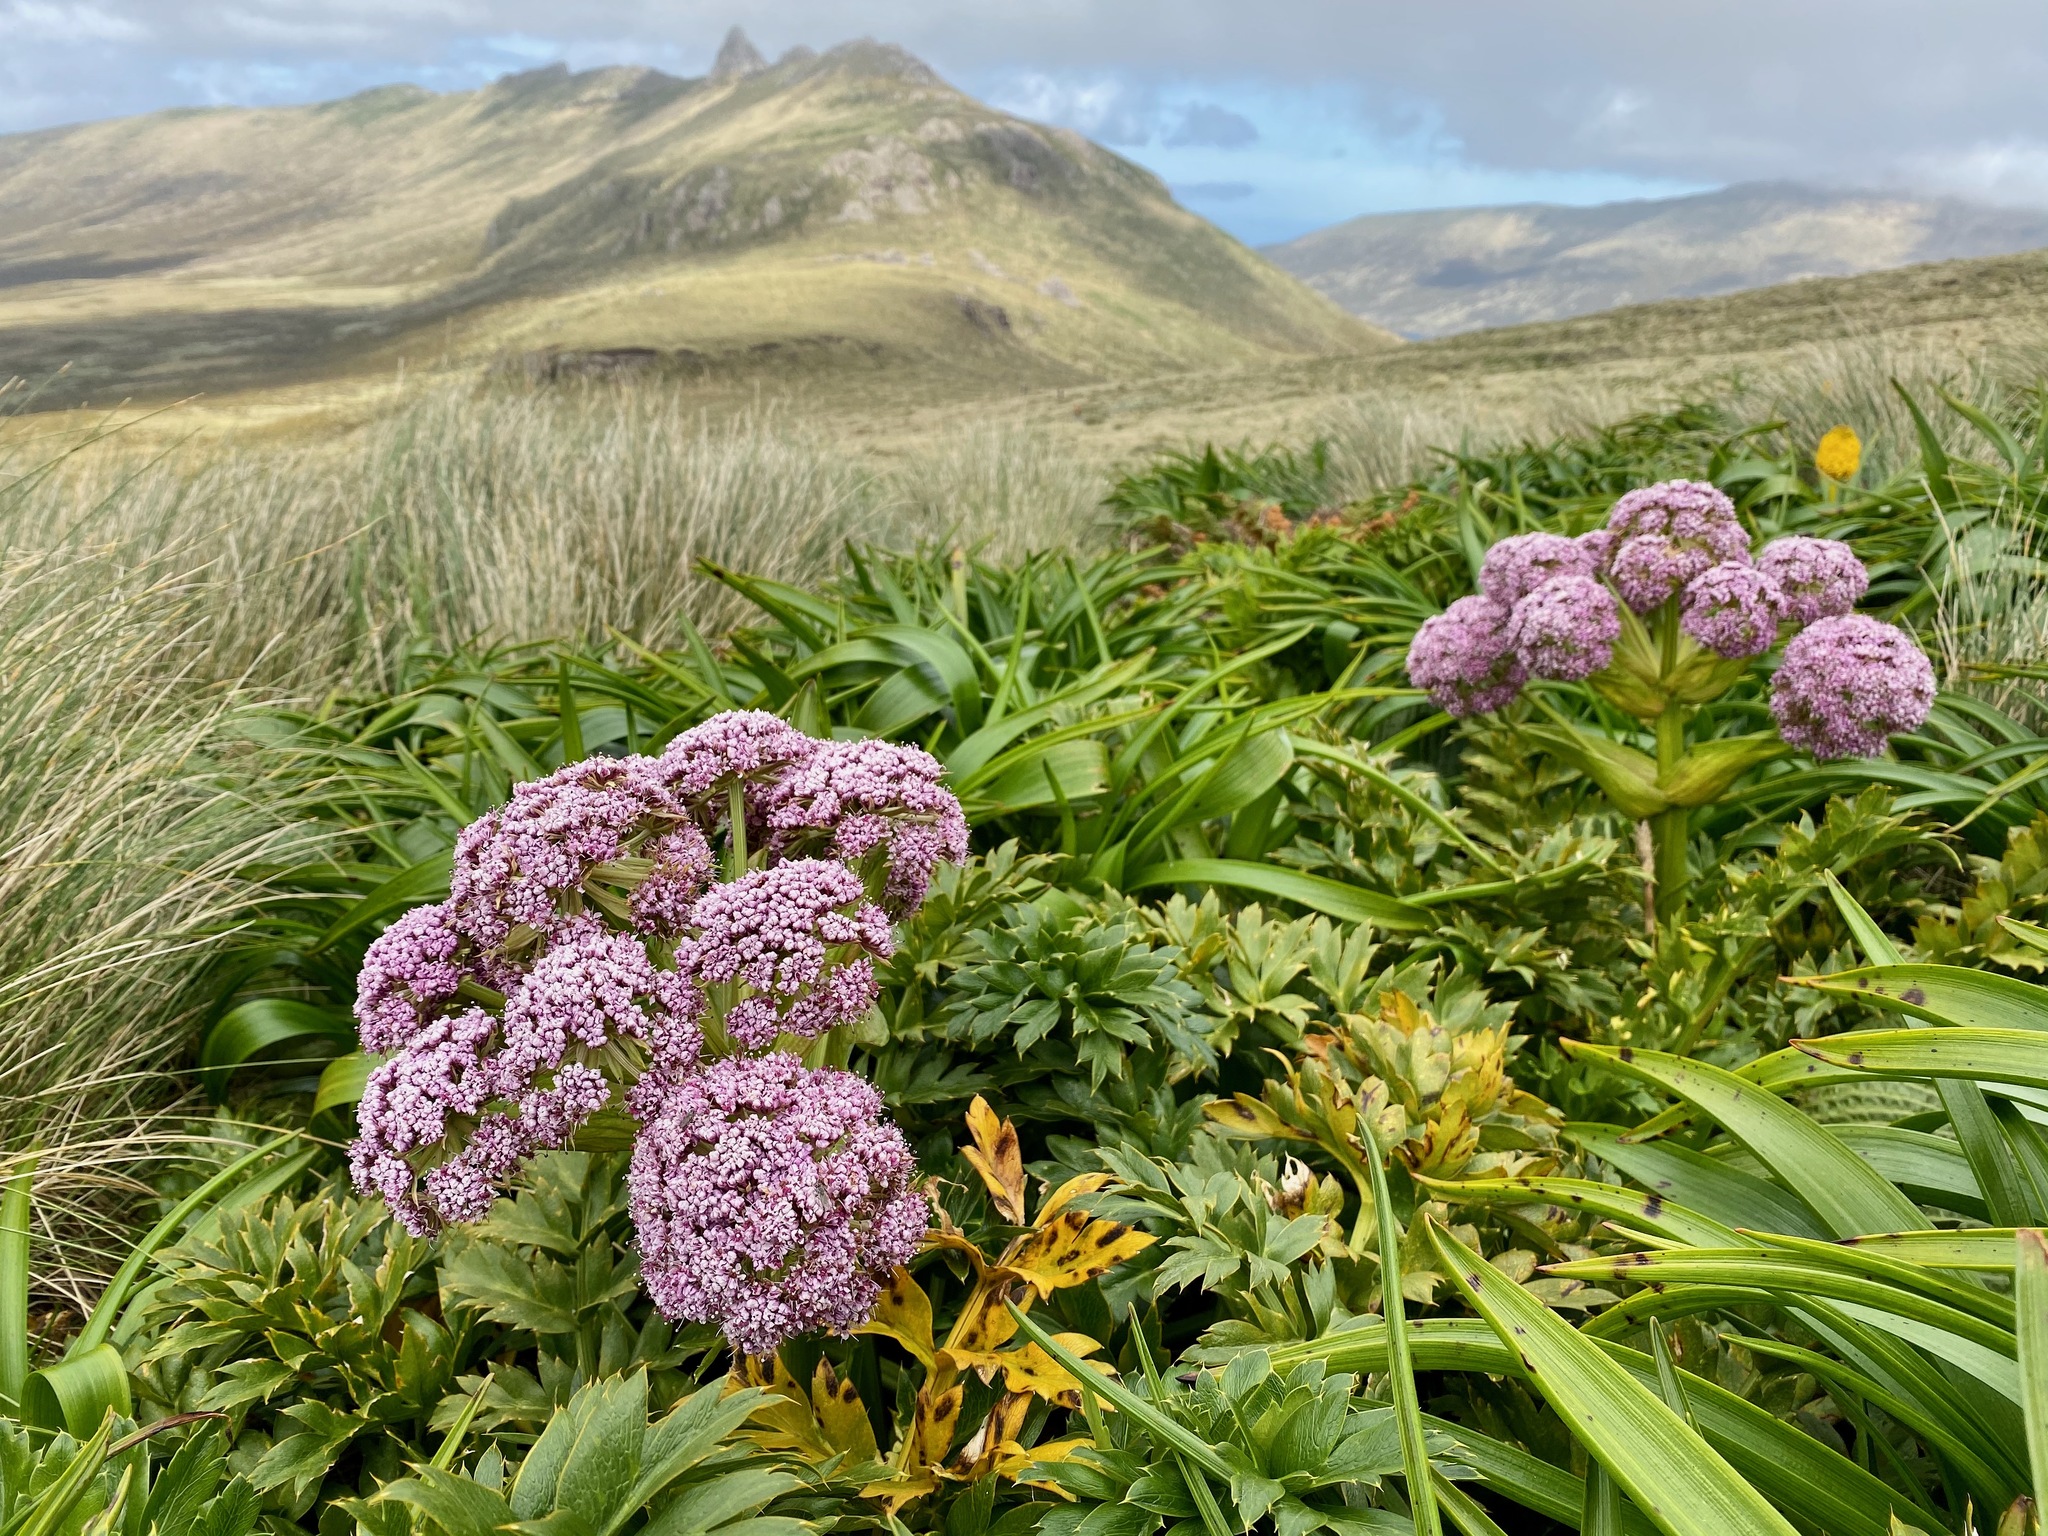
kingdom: Plantae
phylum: Tracheophyta
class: Magnoliopsida
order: Apiales
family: Apiaceae
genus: Anisotome
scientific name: Anisotome latifolia
